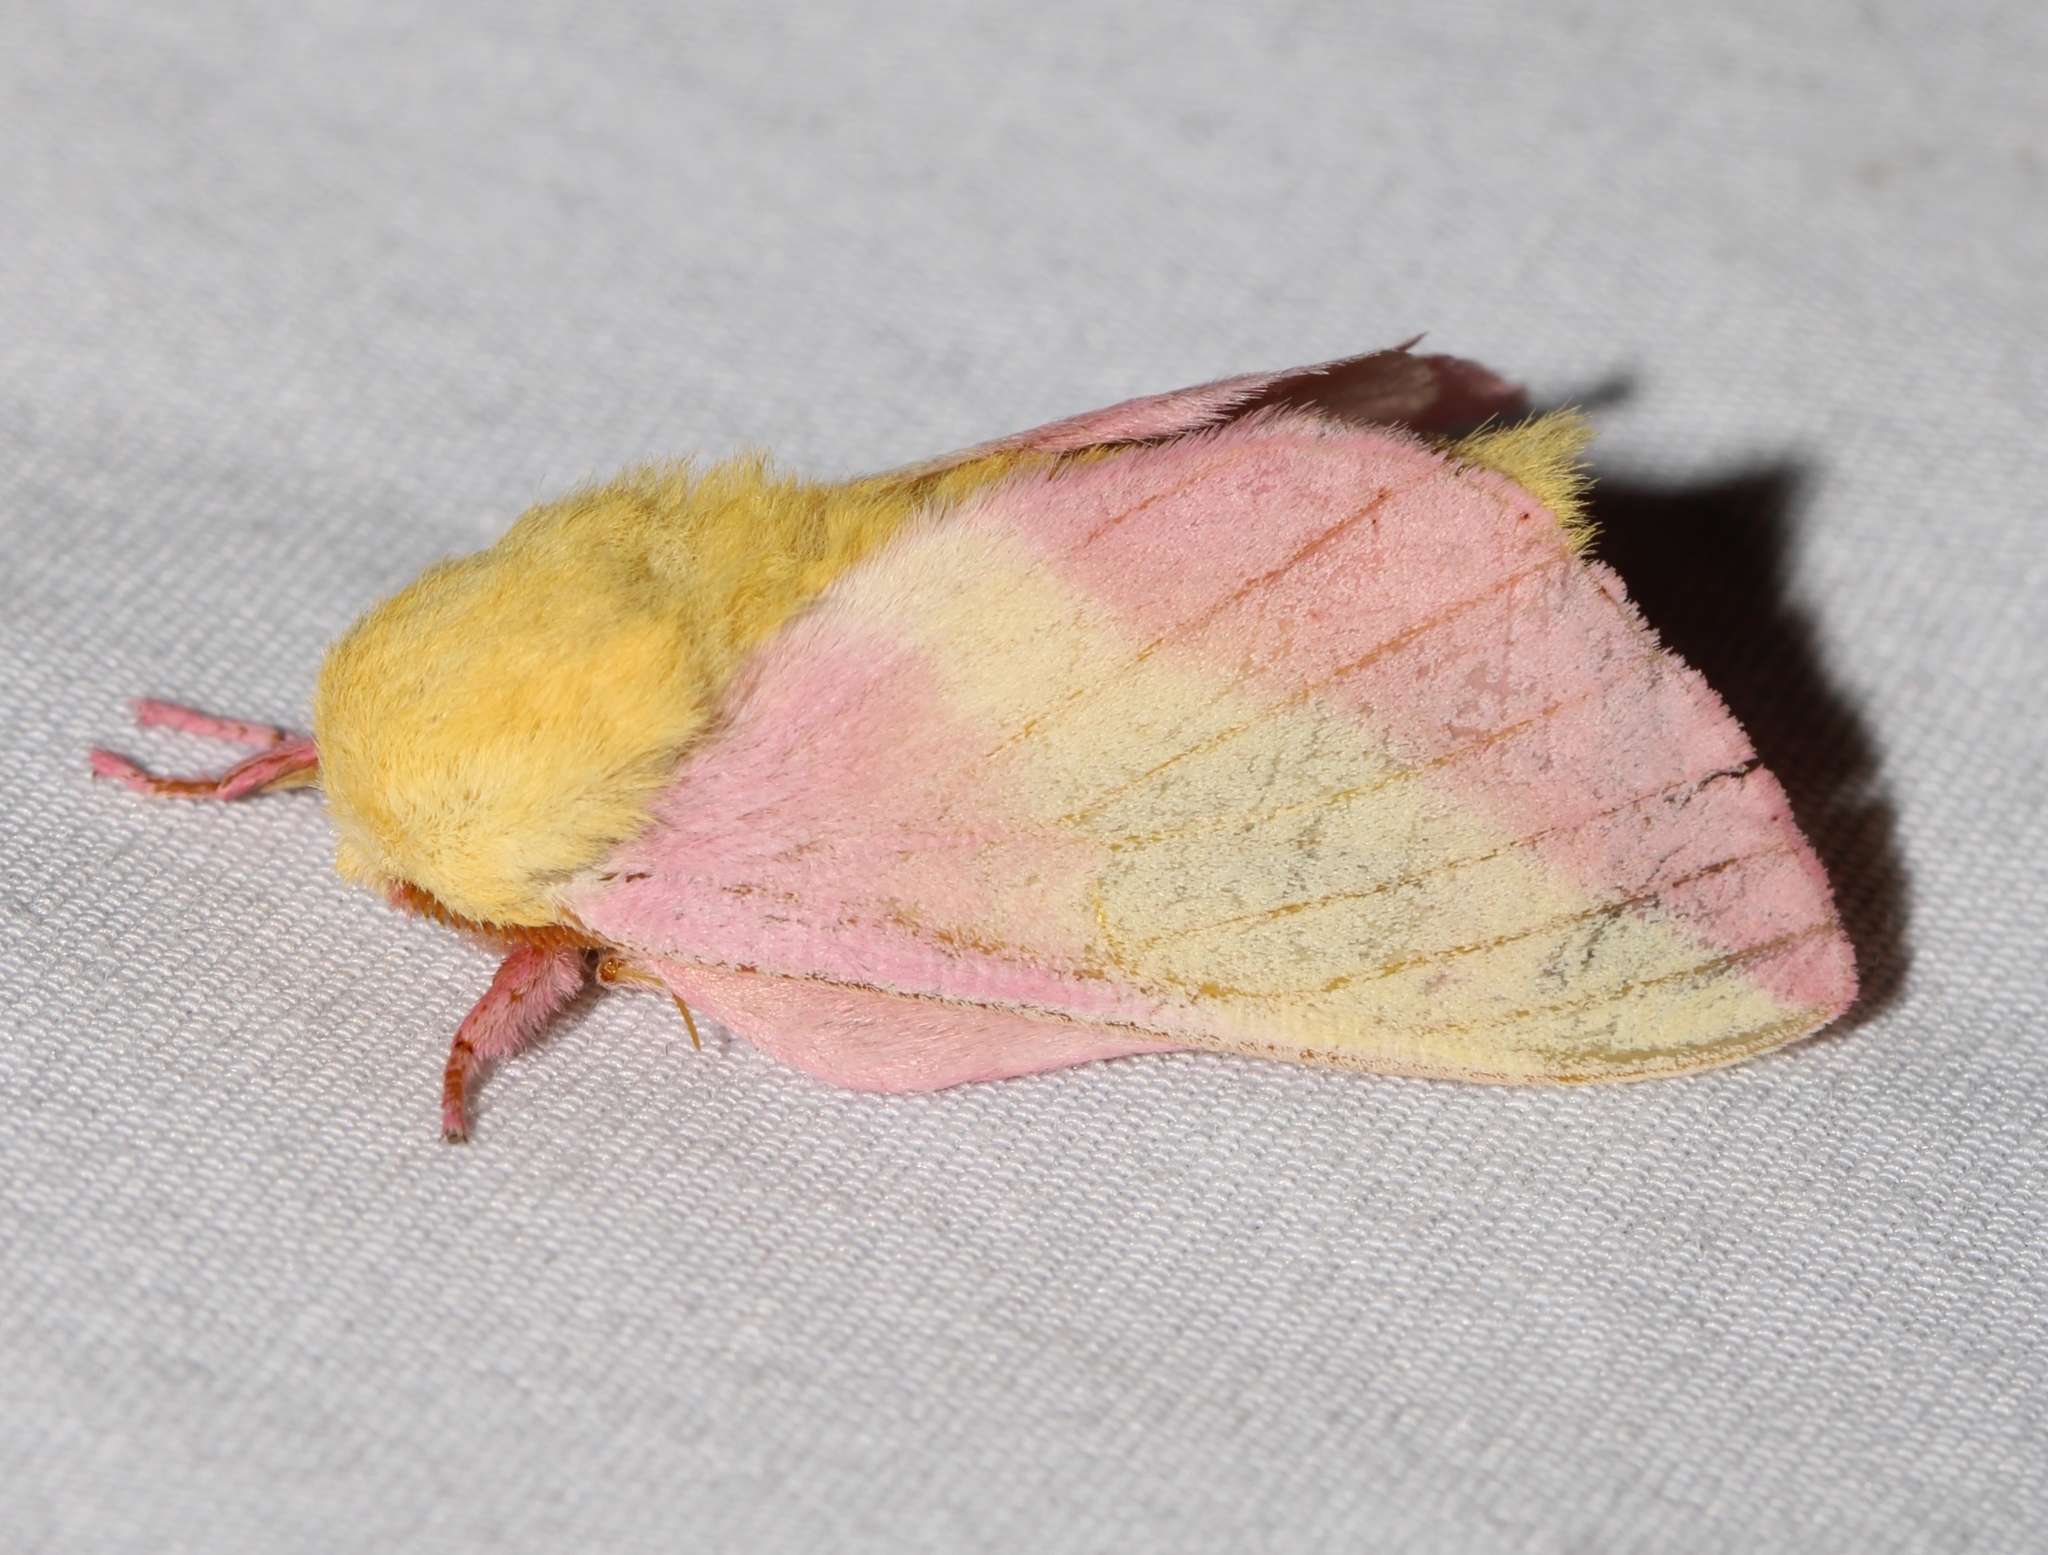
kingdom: Animalia
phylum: Arthropoda
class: Insecta
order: Lepidoptera
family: Saturniidae
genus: Dryocampa
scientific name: Dryocampa rubicunda
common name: Rosy maple moth
